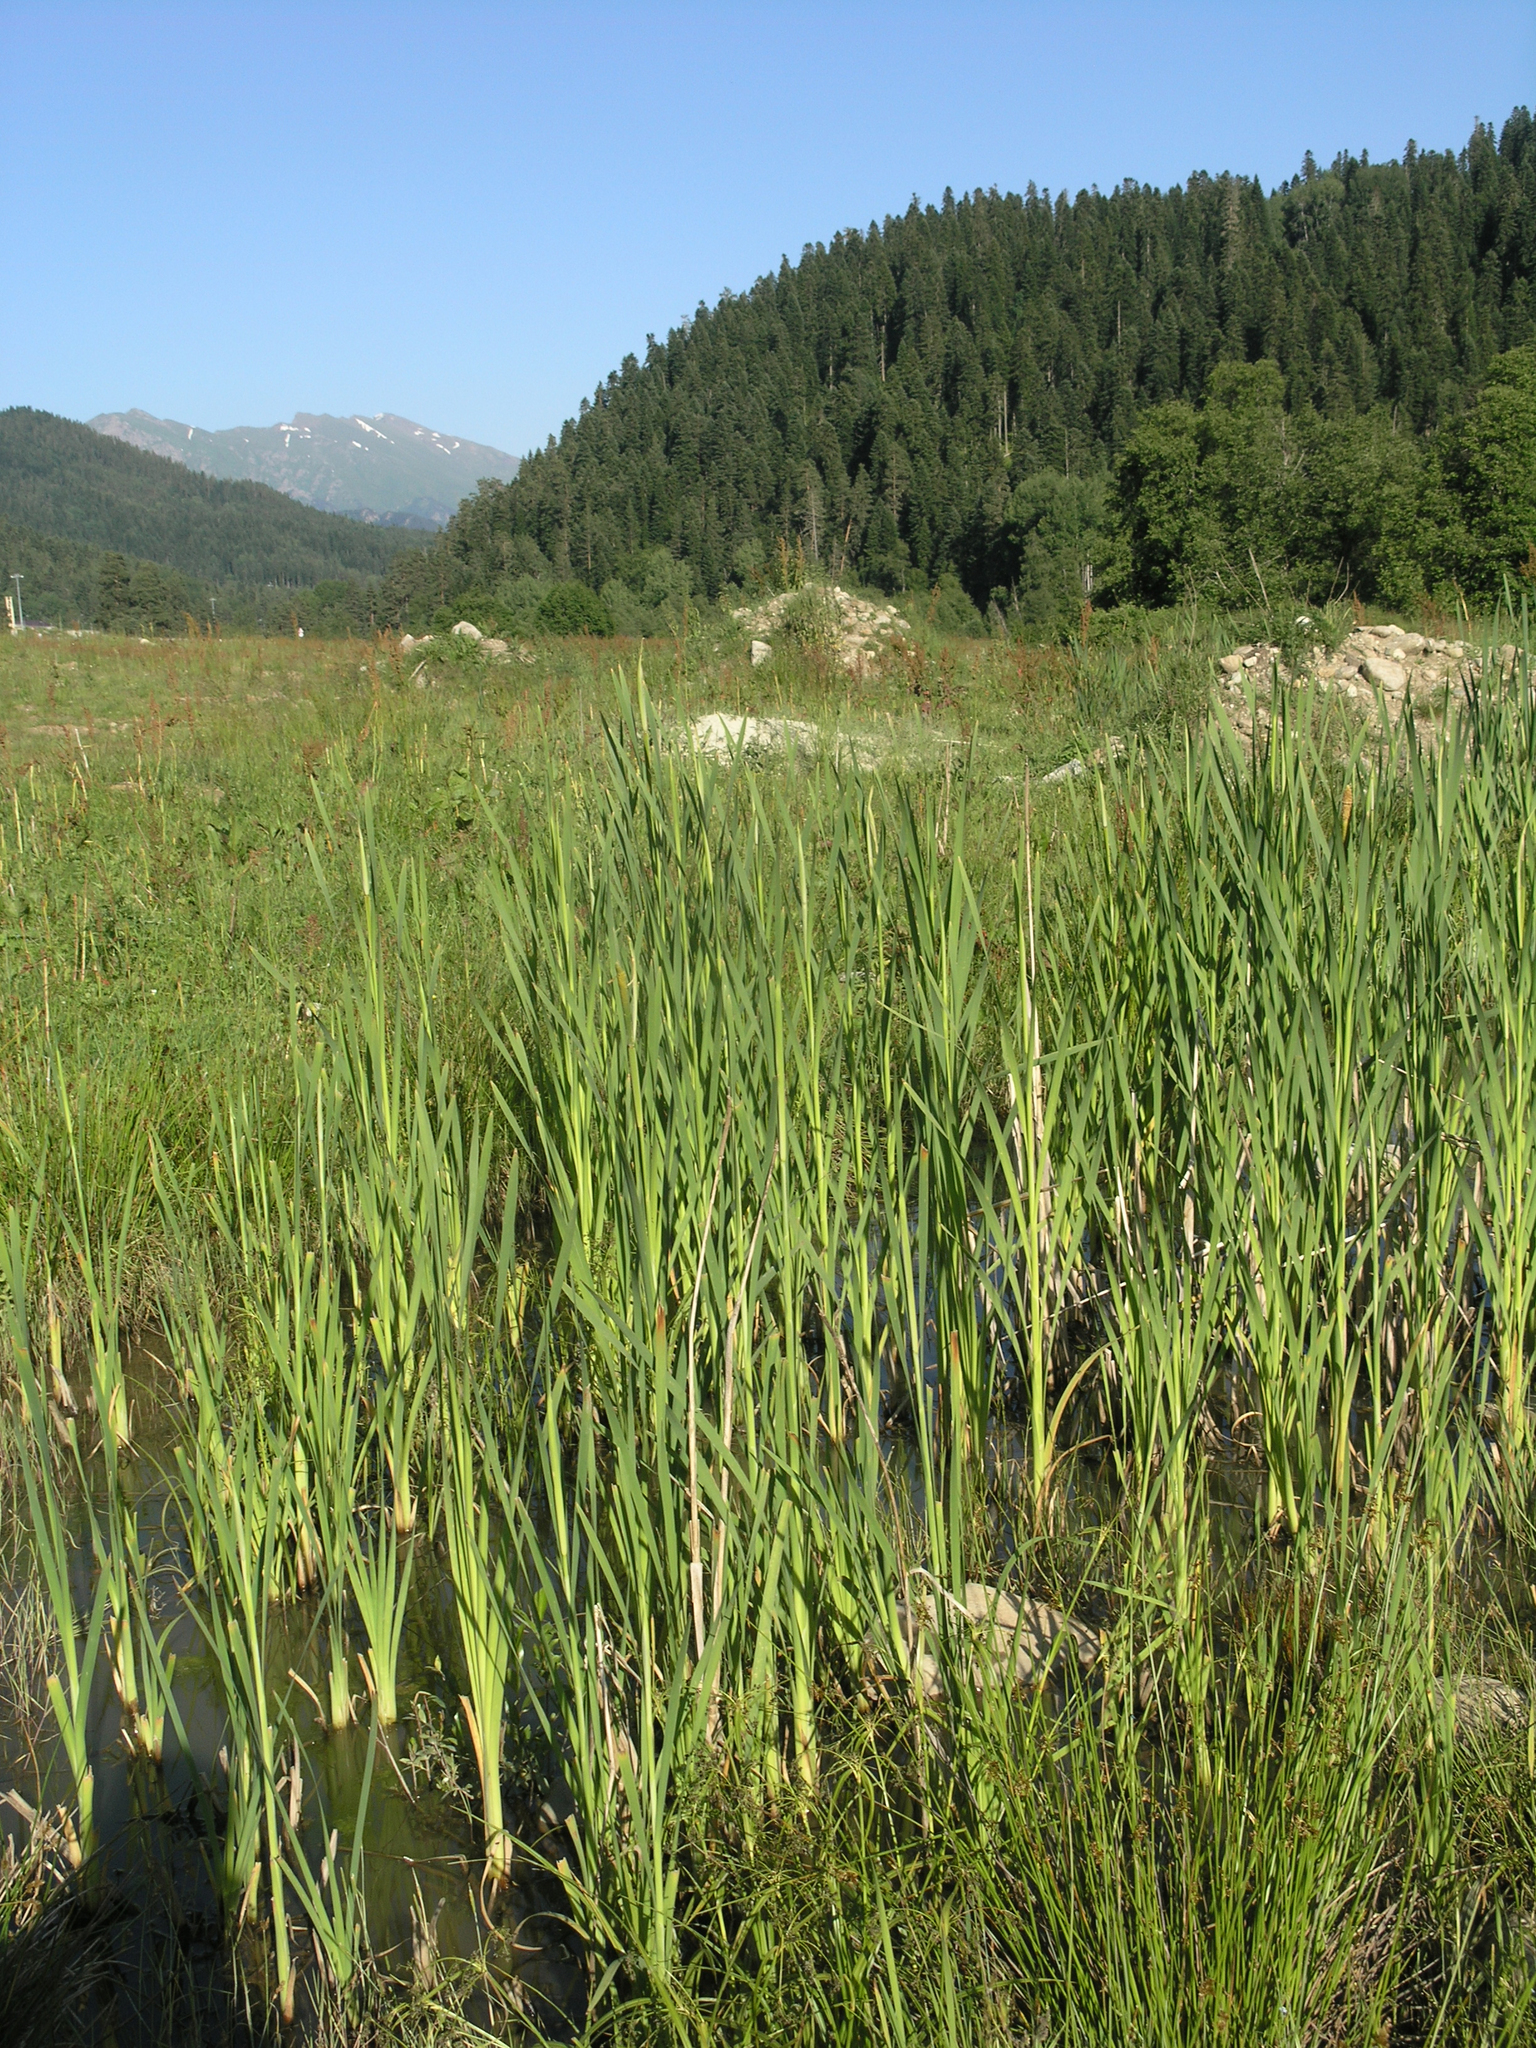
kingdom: Plantae
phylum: Tracheophyta
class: Liliopsida
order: Poales
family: Typhaceae
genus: Typha
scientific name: Typha latifolia
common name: Broadleaf cattail
